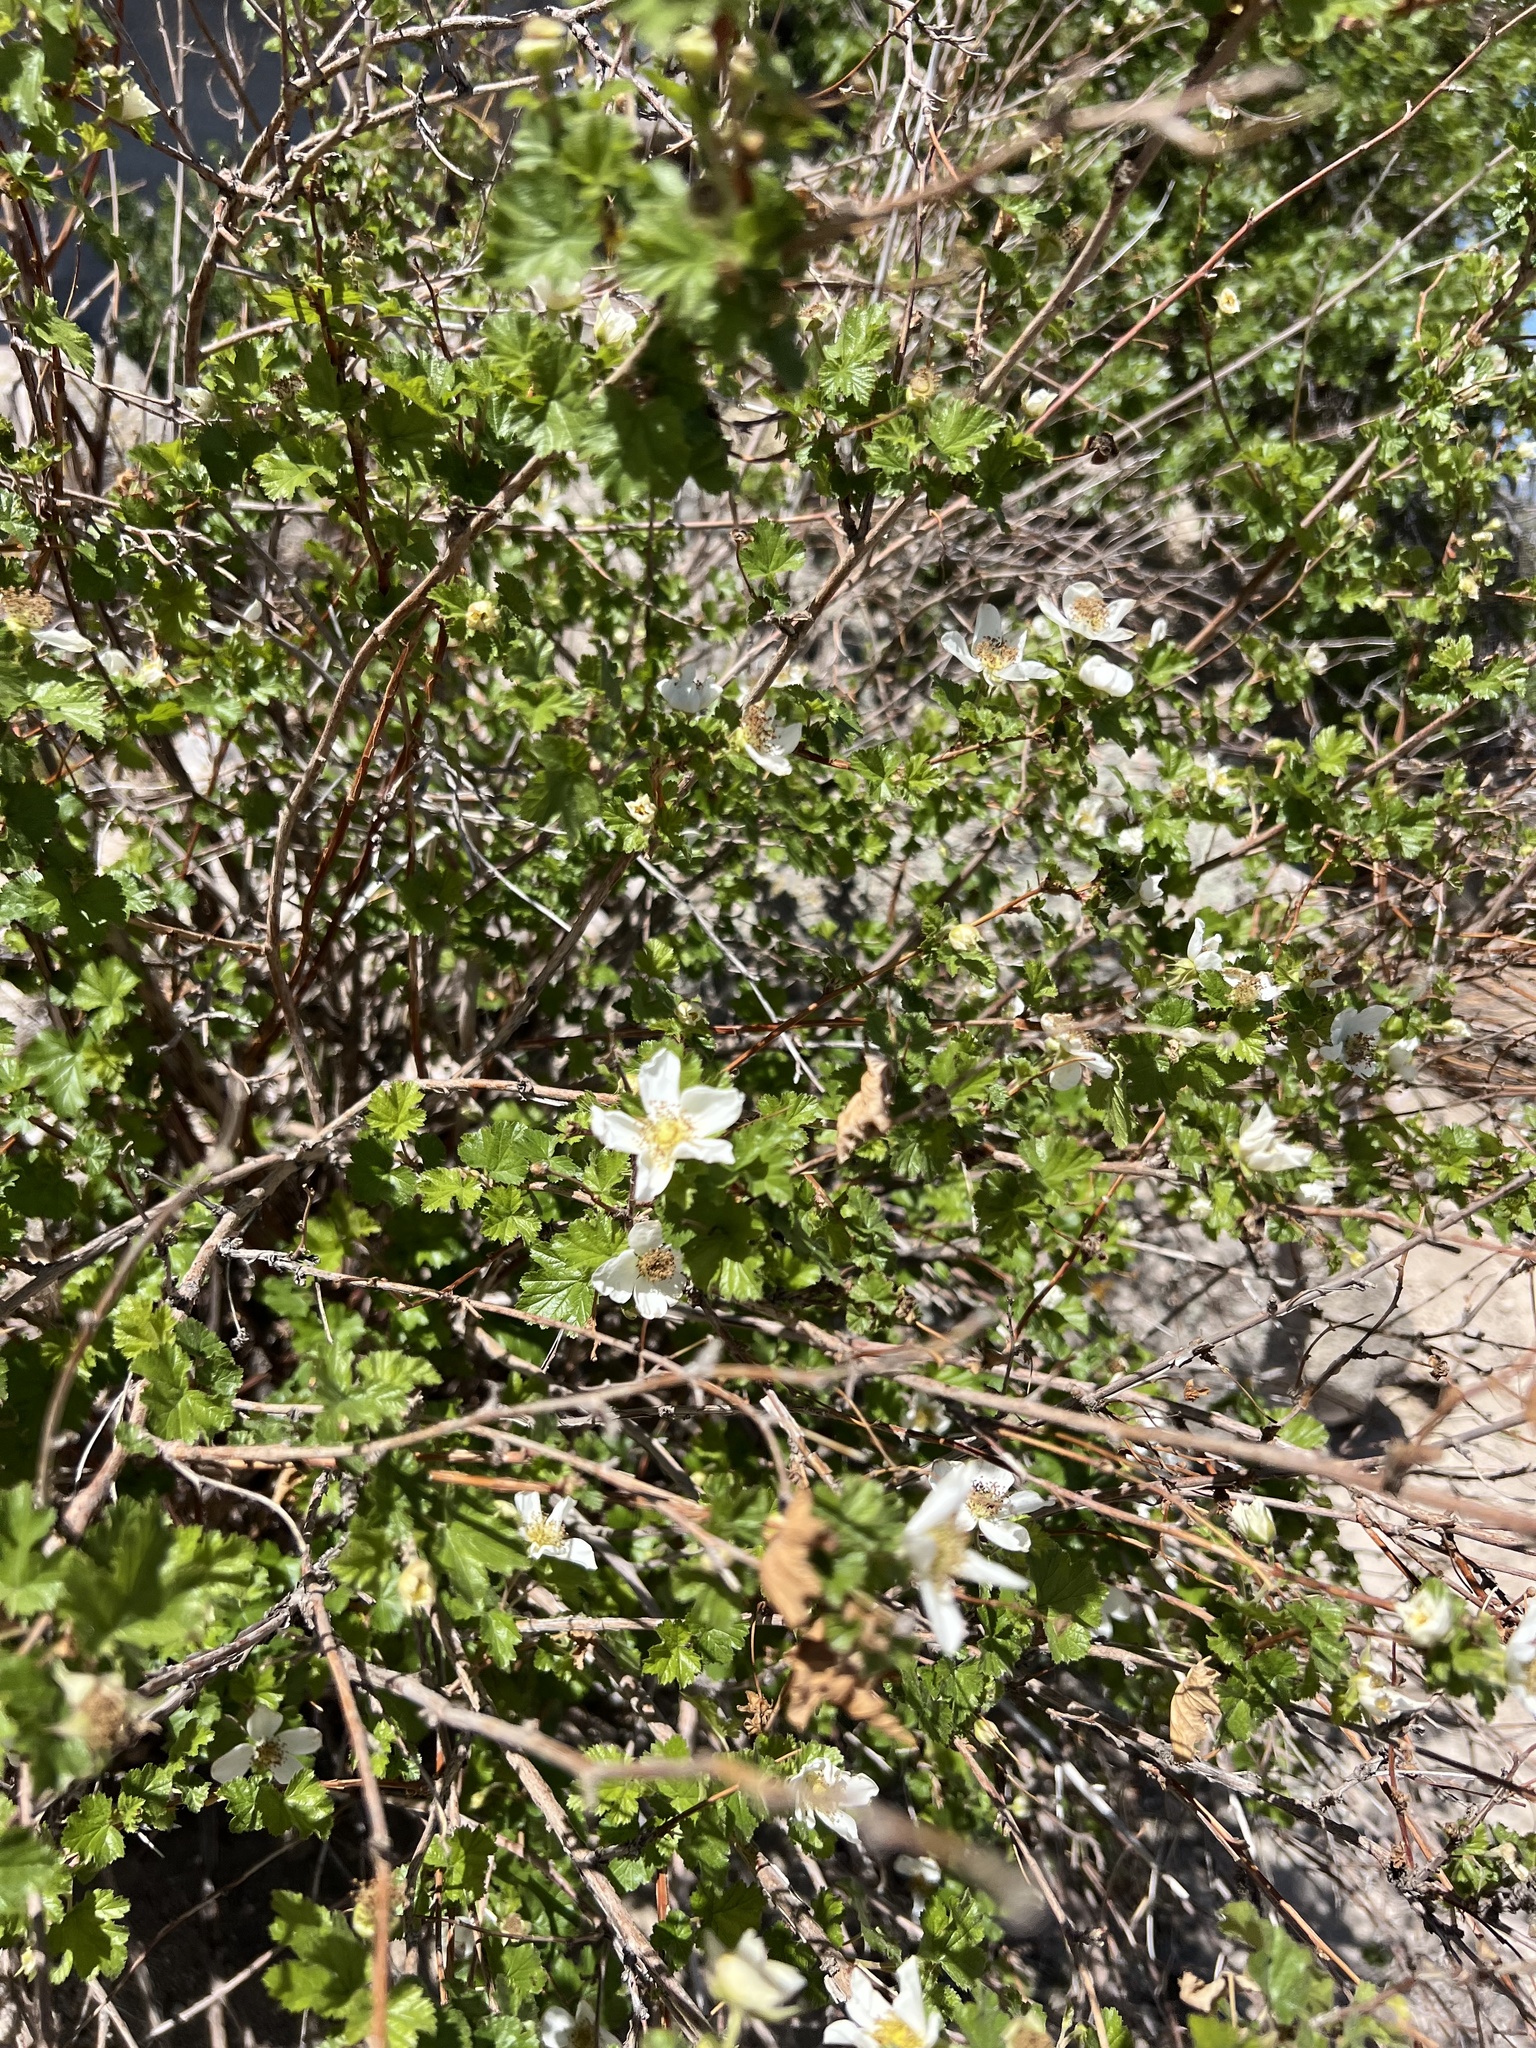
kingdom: Plantae
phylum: Tracheophyta
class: Magnoliopsida
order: Rosales
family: Rosaceae
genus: Rubus
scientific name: Rubus deliciosus
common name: Rocky mountain raspberry
